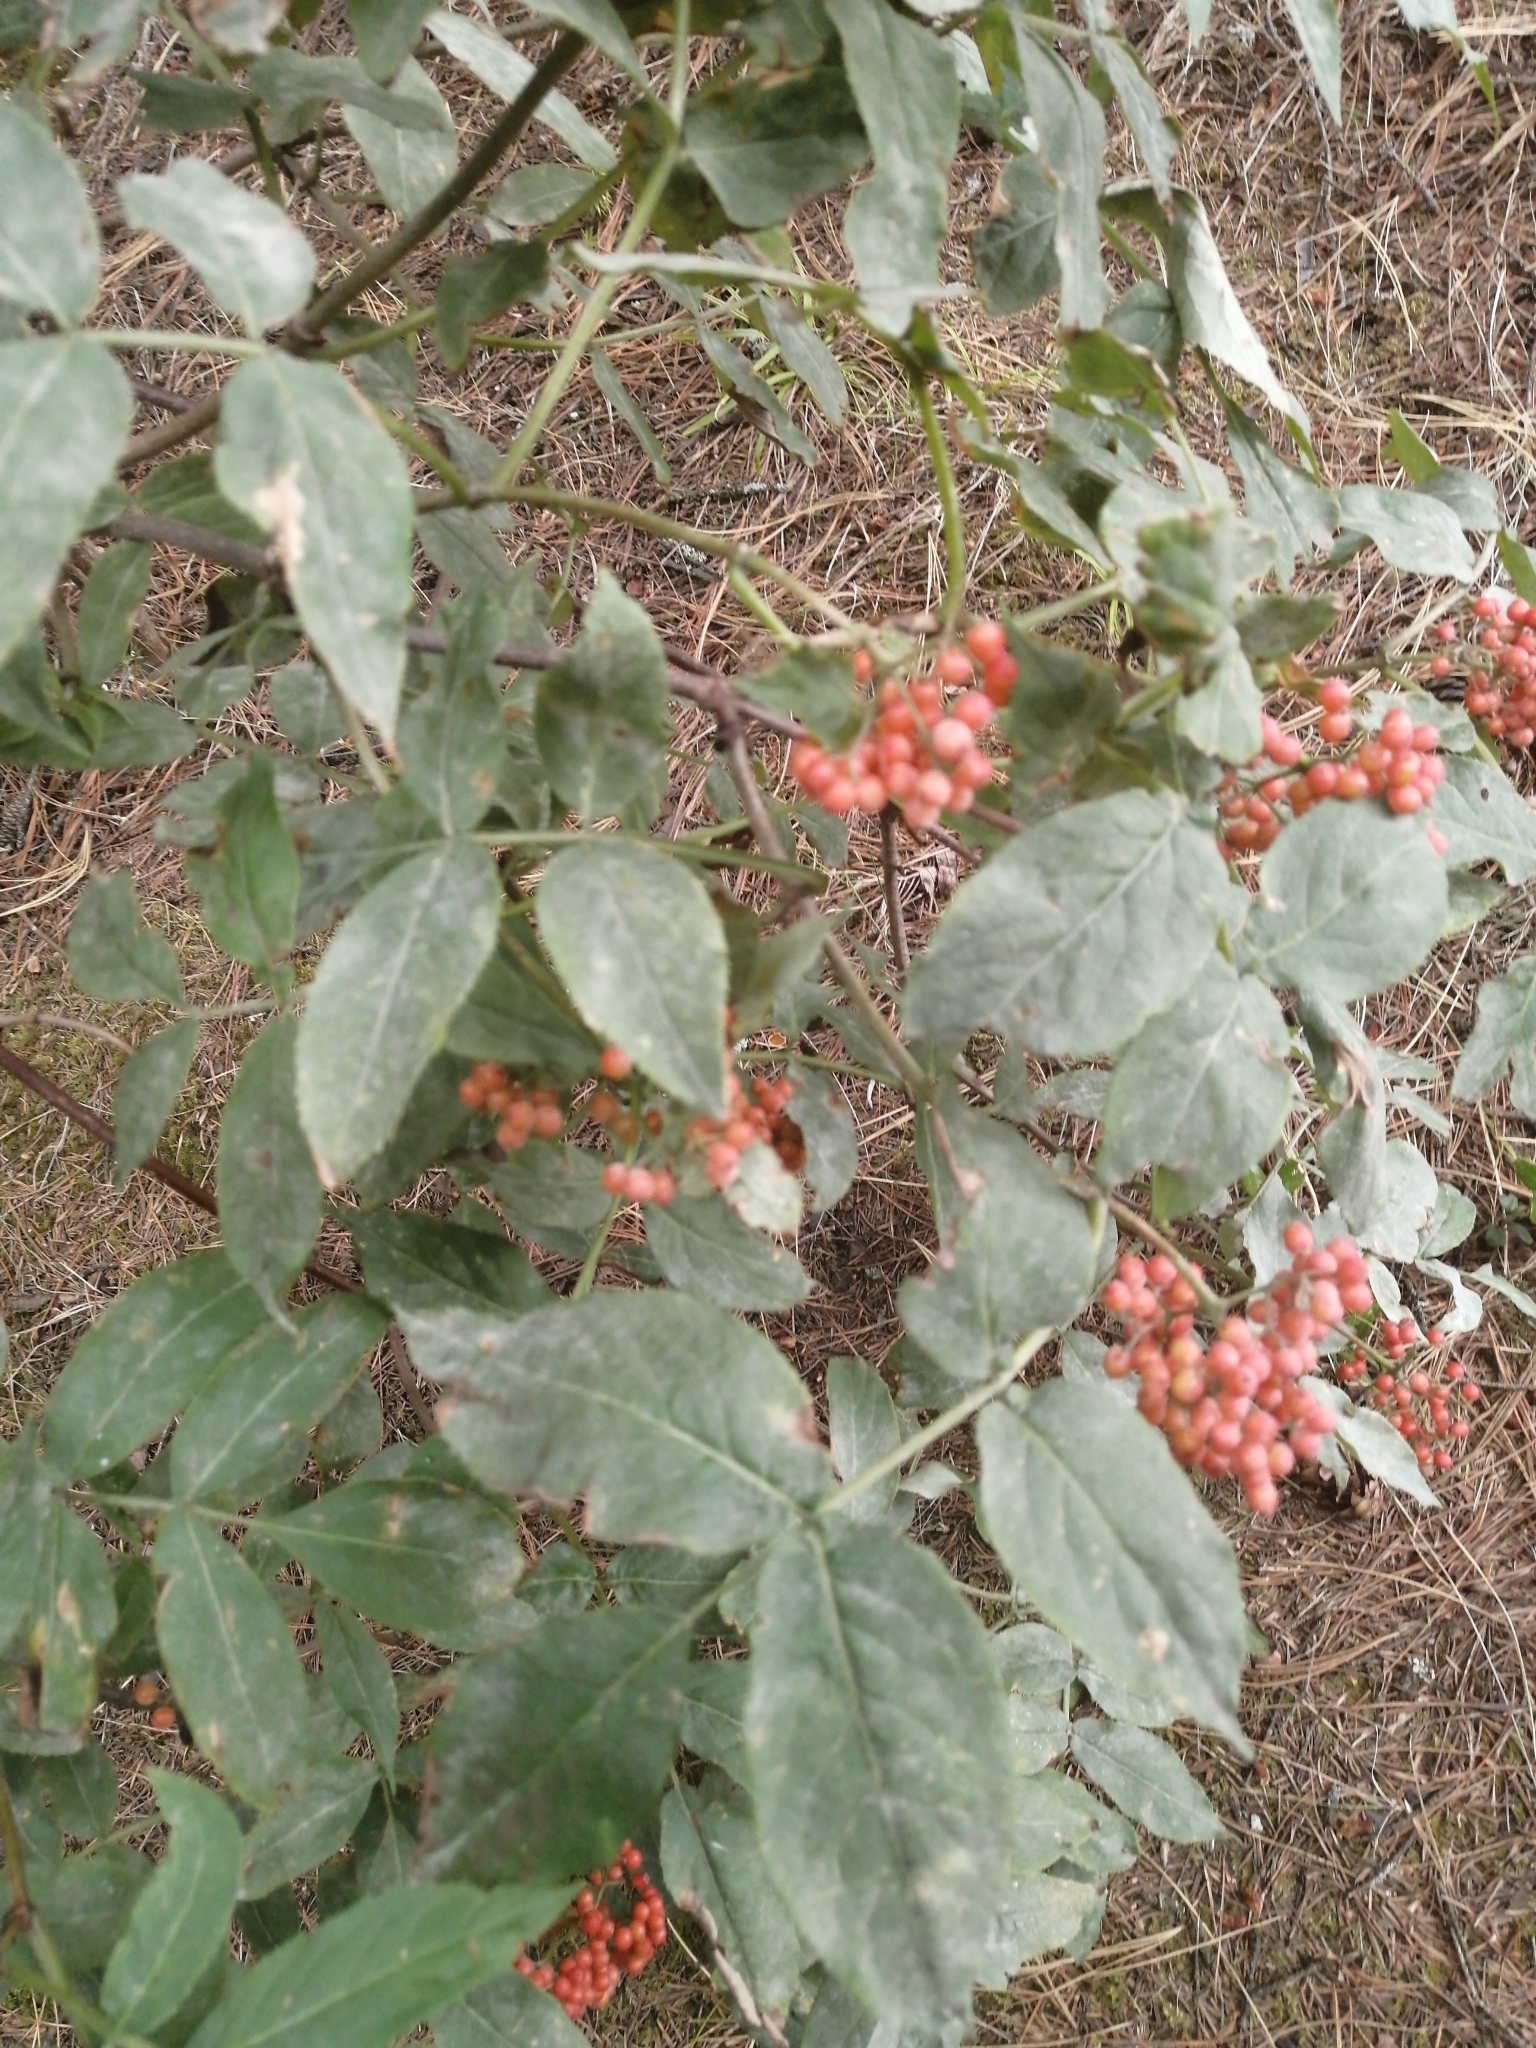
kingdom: Plantae
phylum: Tracheophyta
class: Magnoliopsida
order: Dipsacales
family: Viburnaceae
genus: Sambucus
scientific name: Sambucus sibirica
